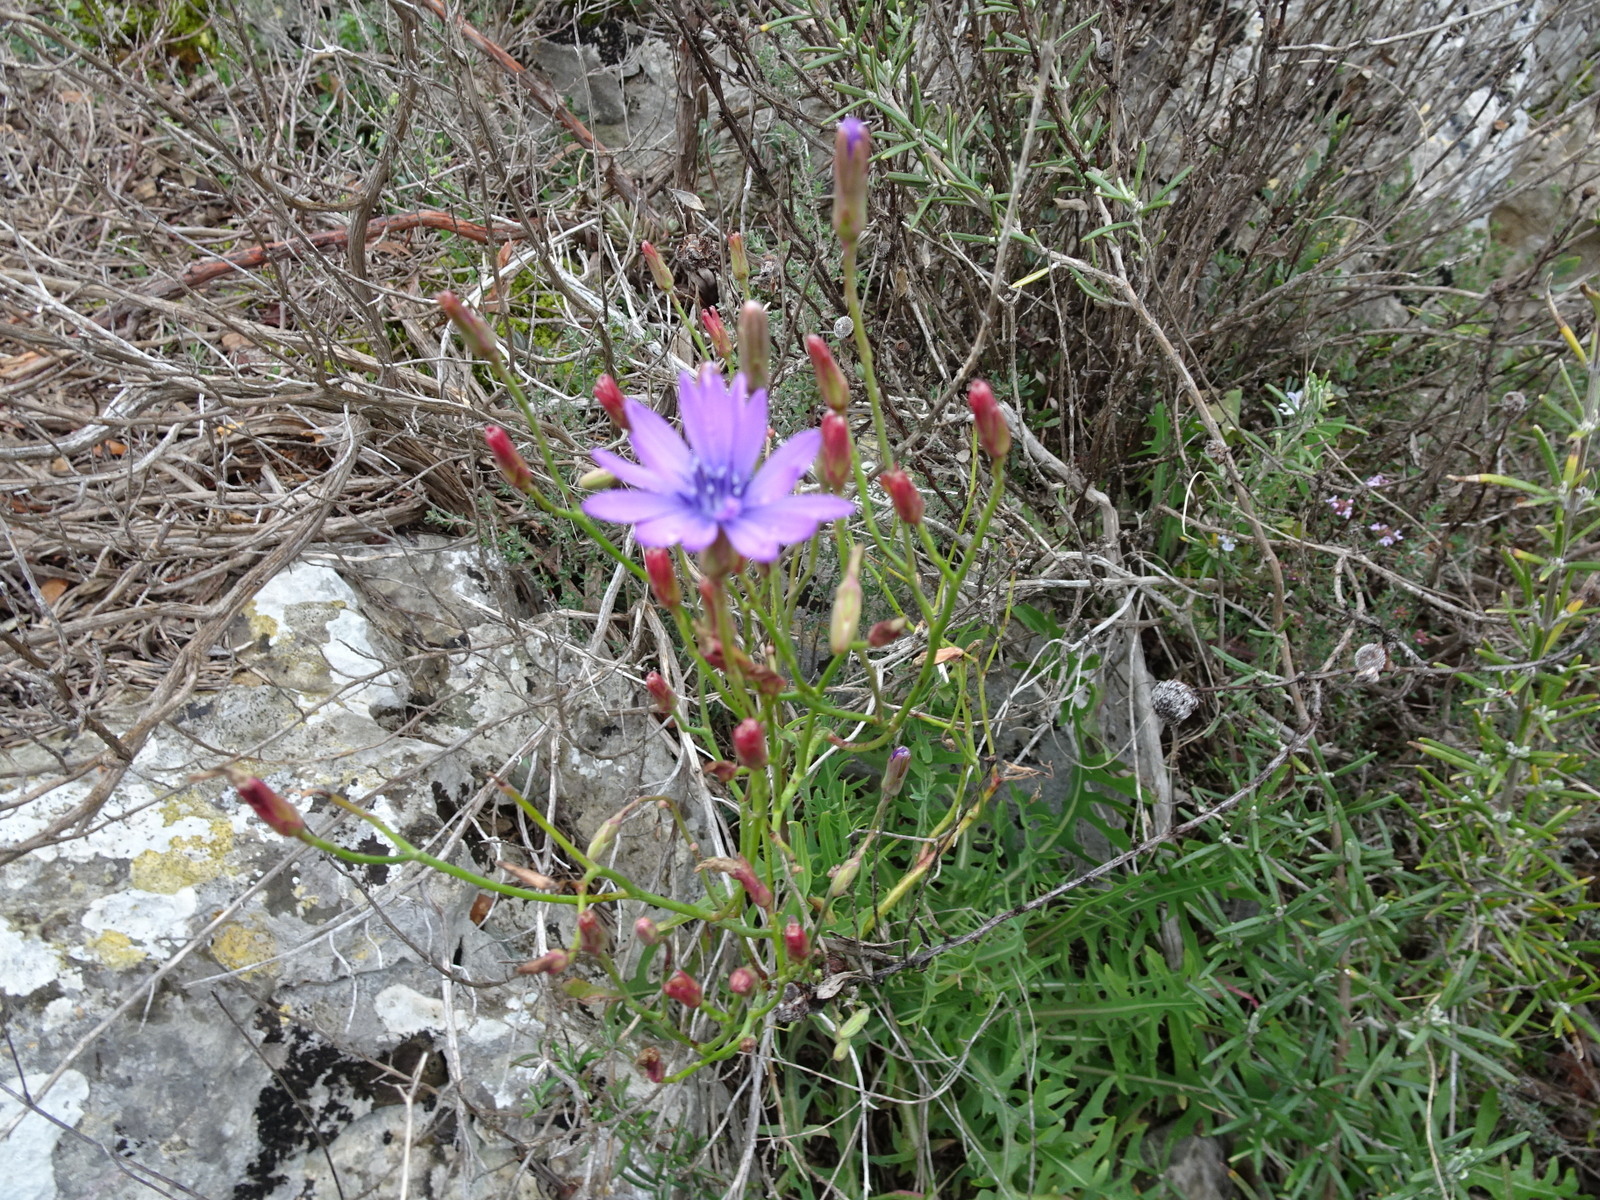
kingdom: Plantae
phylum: Tracheophyta
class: Magnoliopsida
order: Asterales
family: Asteraceae
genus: Lactuca
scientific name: Lactuca perennis
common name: Mountain lettuce
